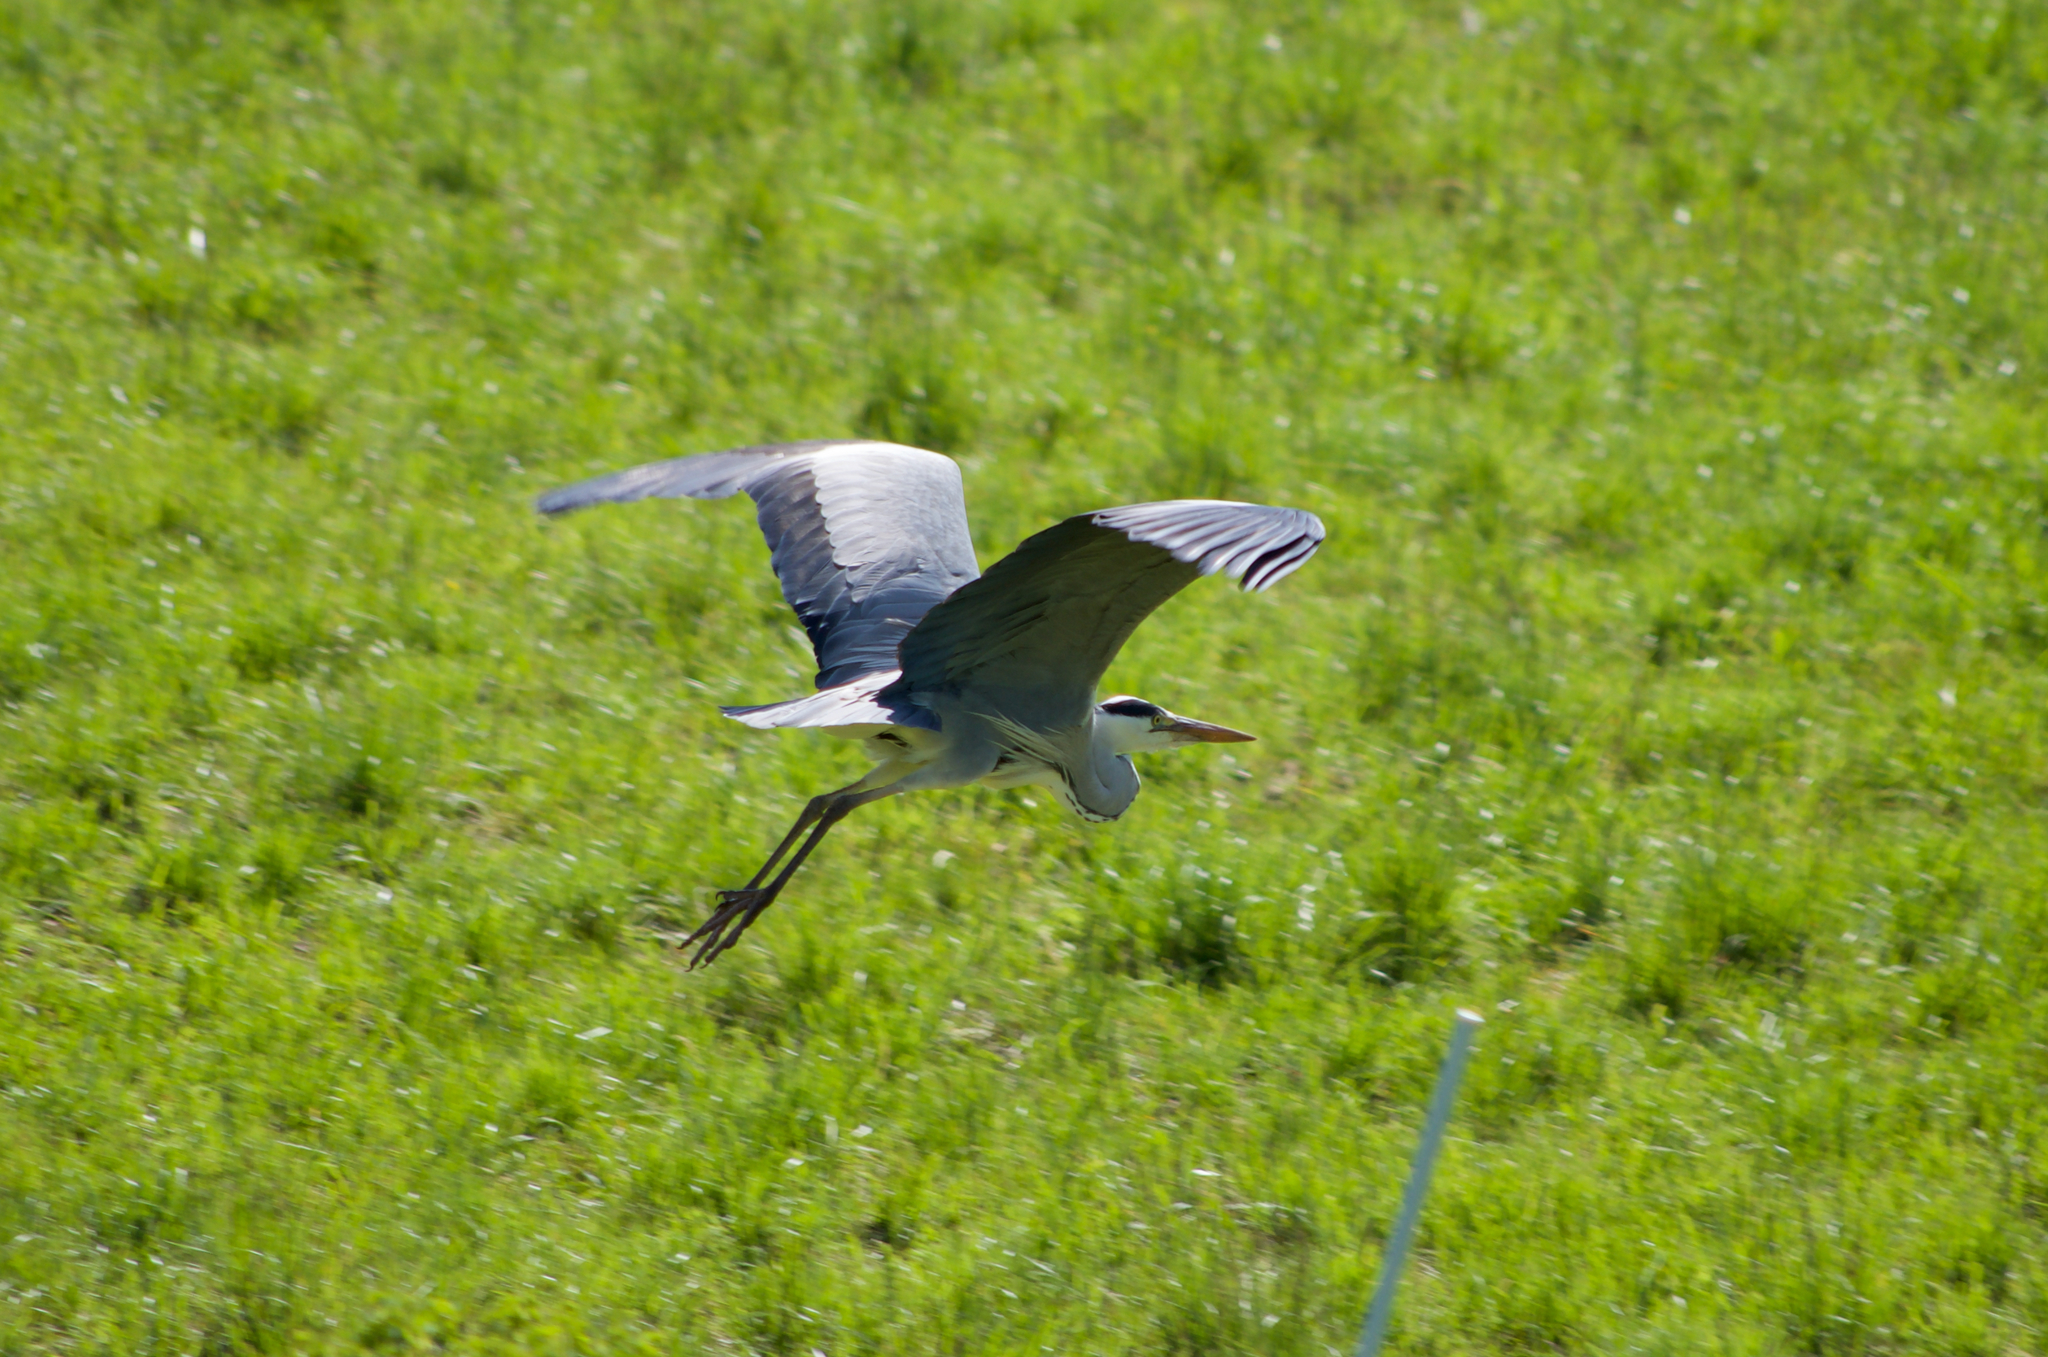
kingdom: Animalia
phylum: Chordata
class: Aves
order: Pelecaniformes
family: Ardeidae
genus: Ardea
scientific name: Ardea cinerea
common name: Grey heron
